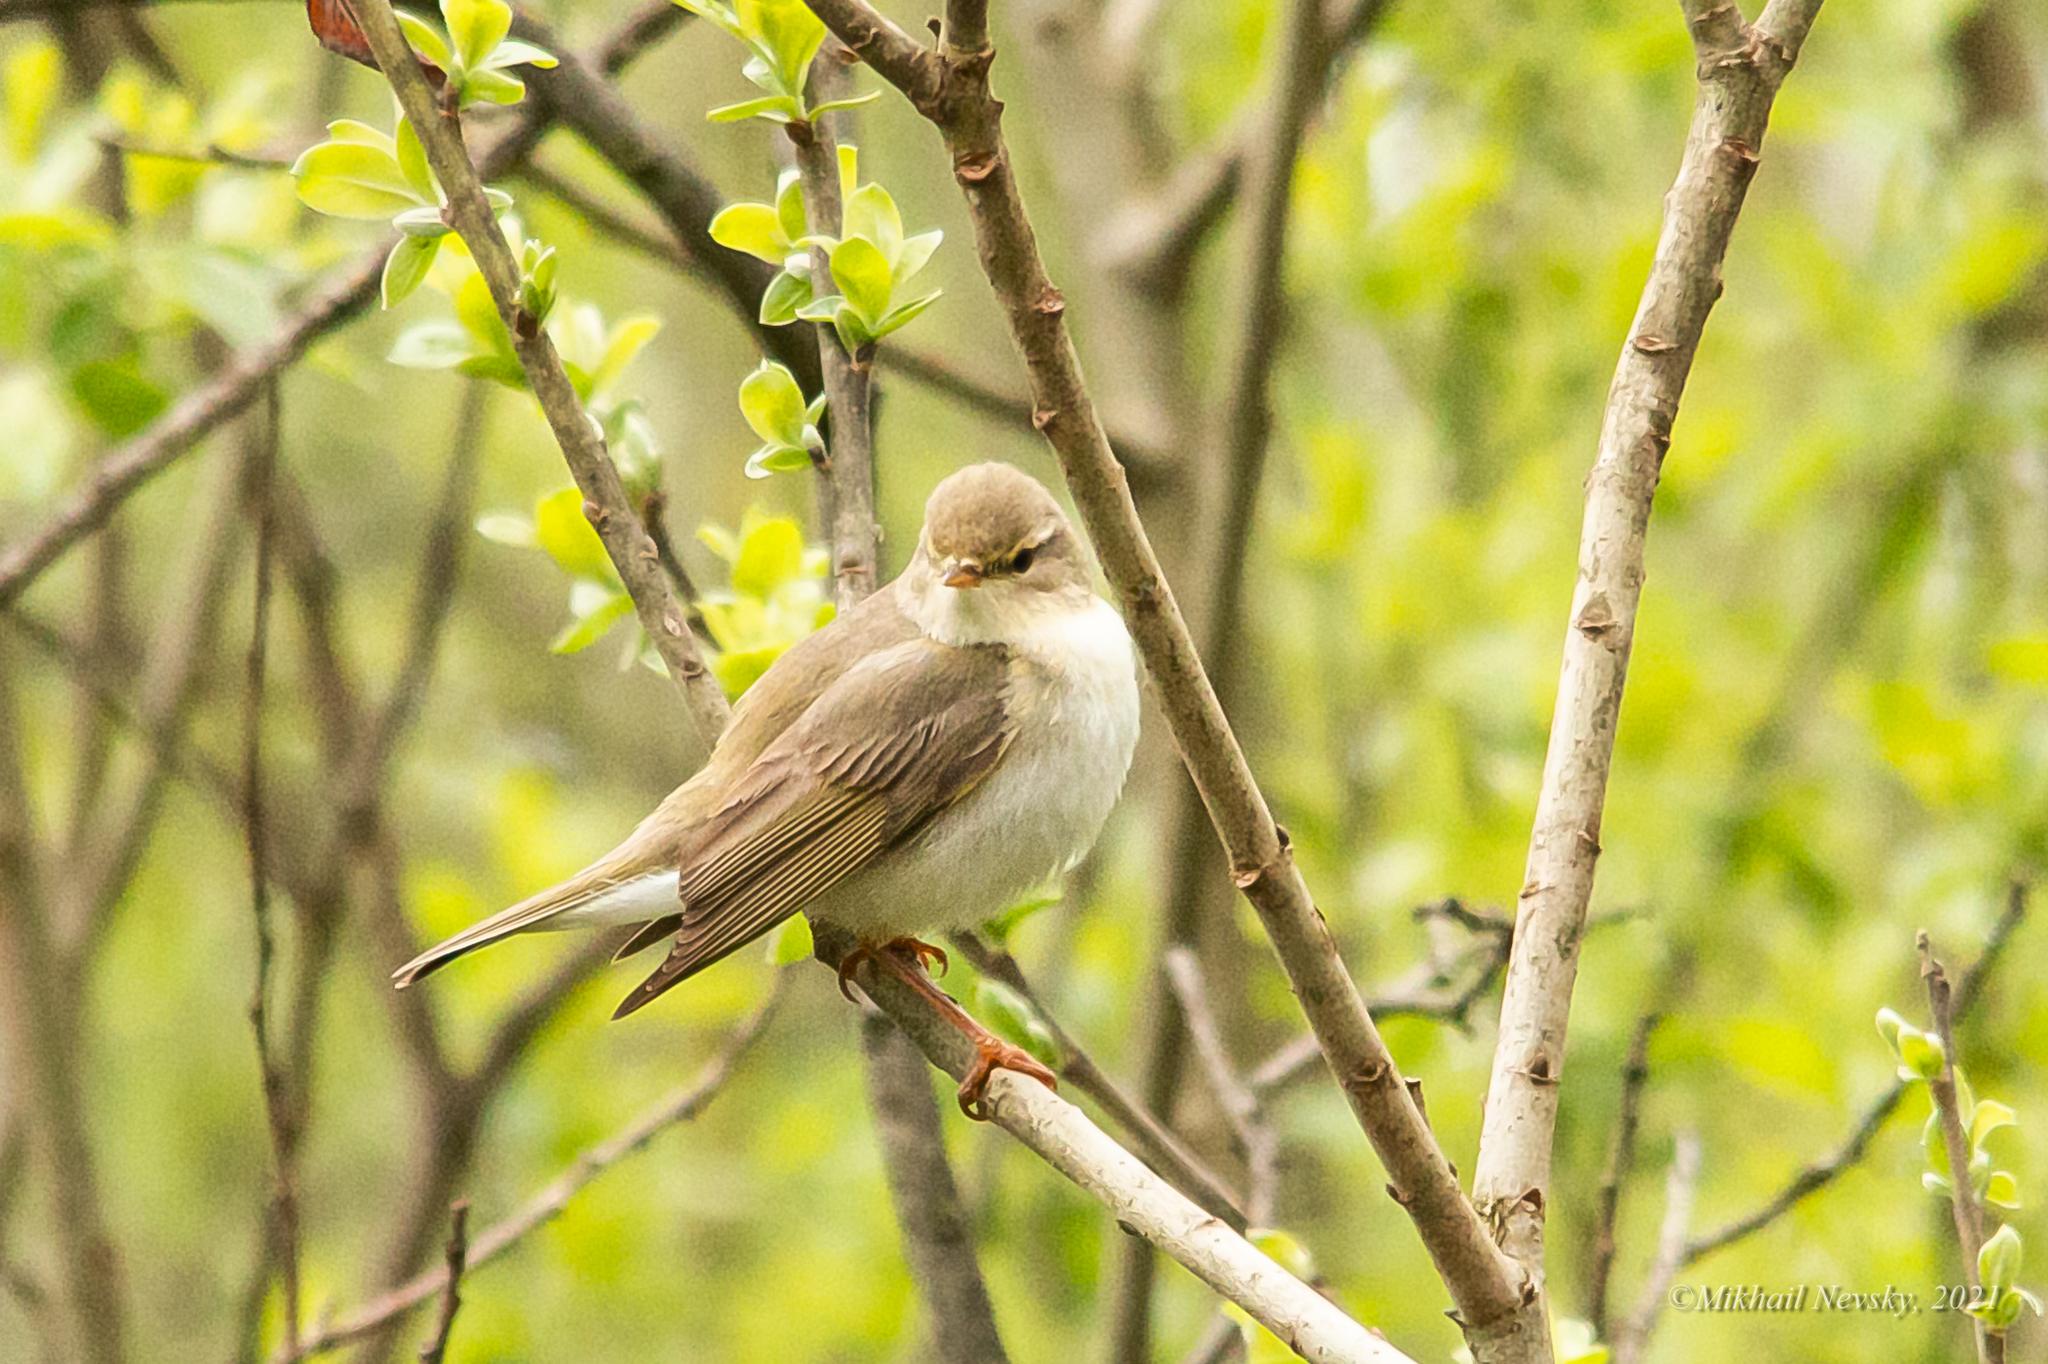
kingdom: Animalia
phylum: Chordata
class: Aves
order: Passeriformes
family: Phylloscopidae
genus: Phylloscopus
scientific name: Phylloscopus trochilus
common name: Willow warbler
